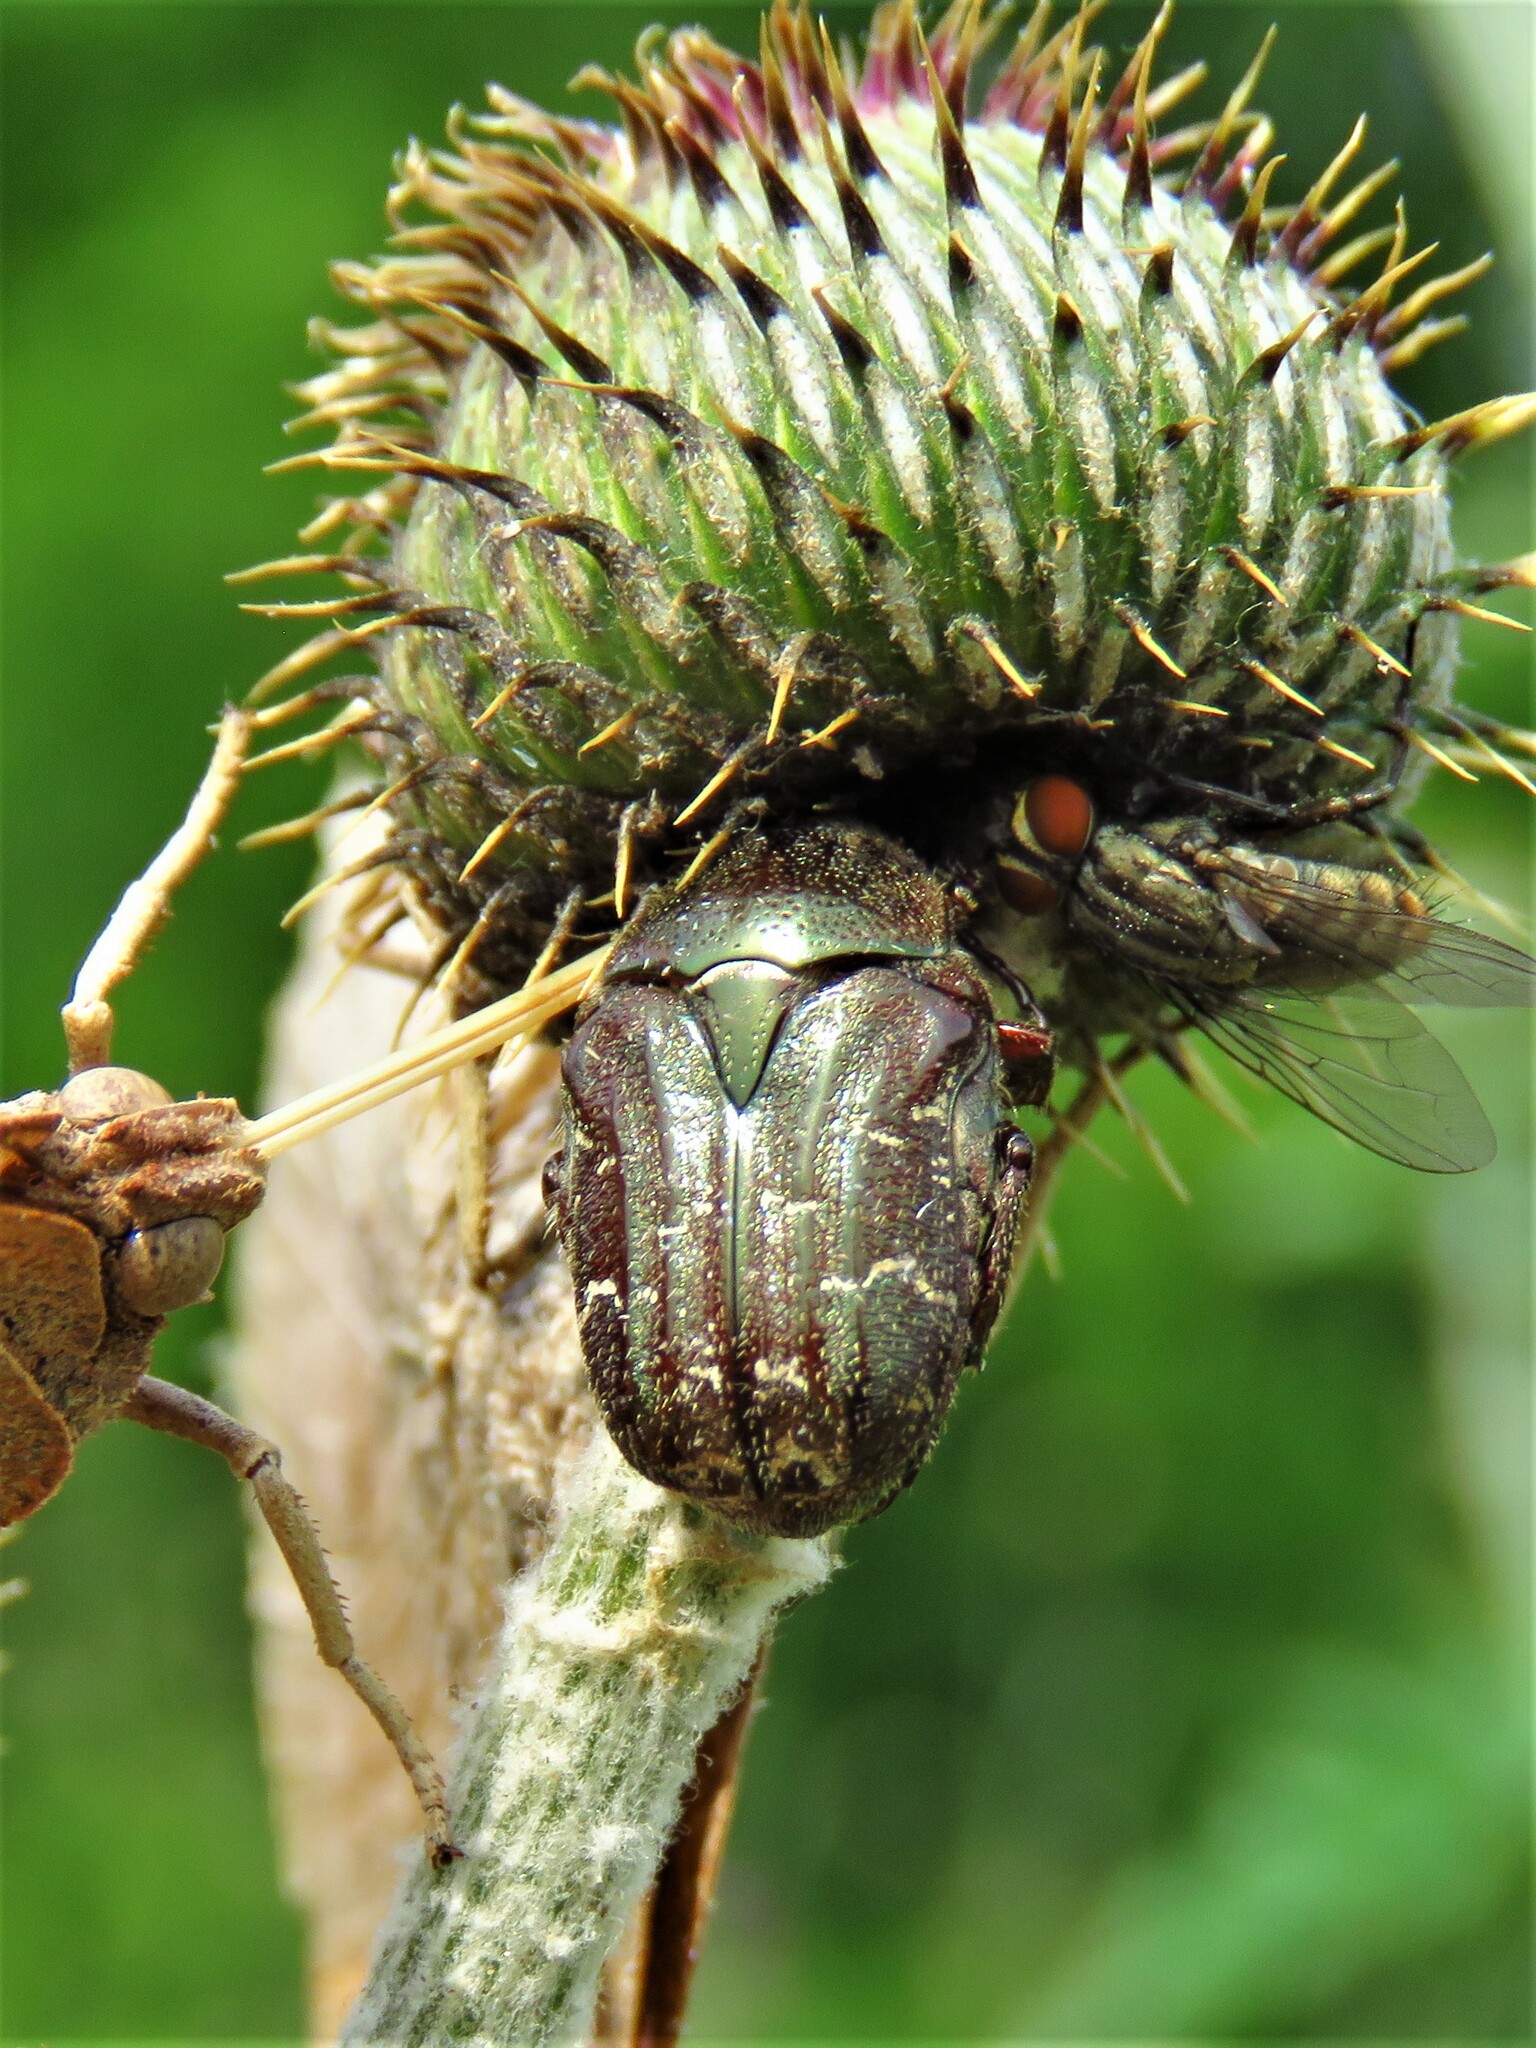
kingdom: Animalia
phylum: Arthropoda
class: Insecta
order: Coleoptera
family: Scarabaeidae
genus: Euphoria
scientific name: Euphoria sepulcralis
